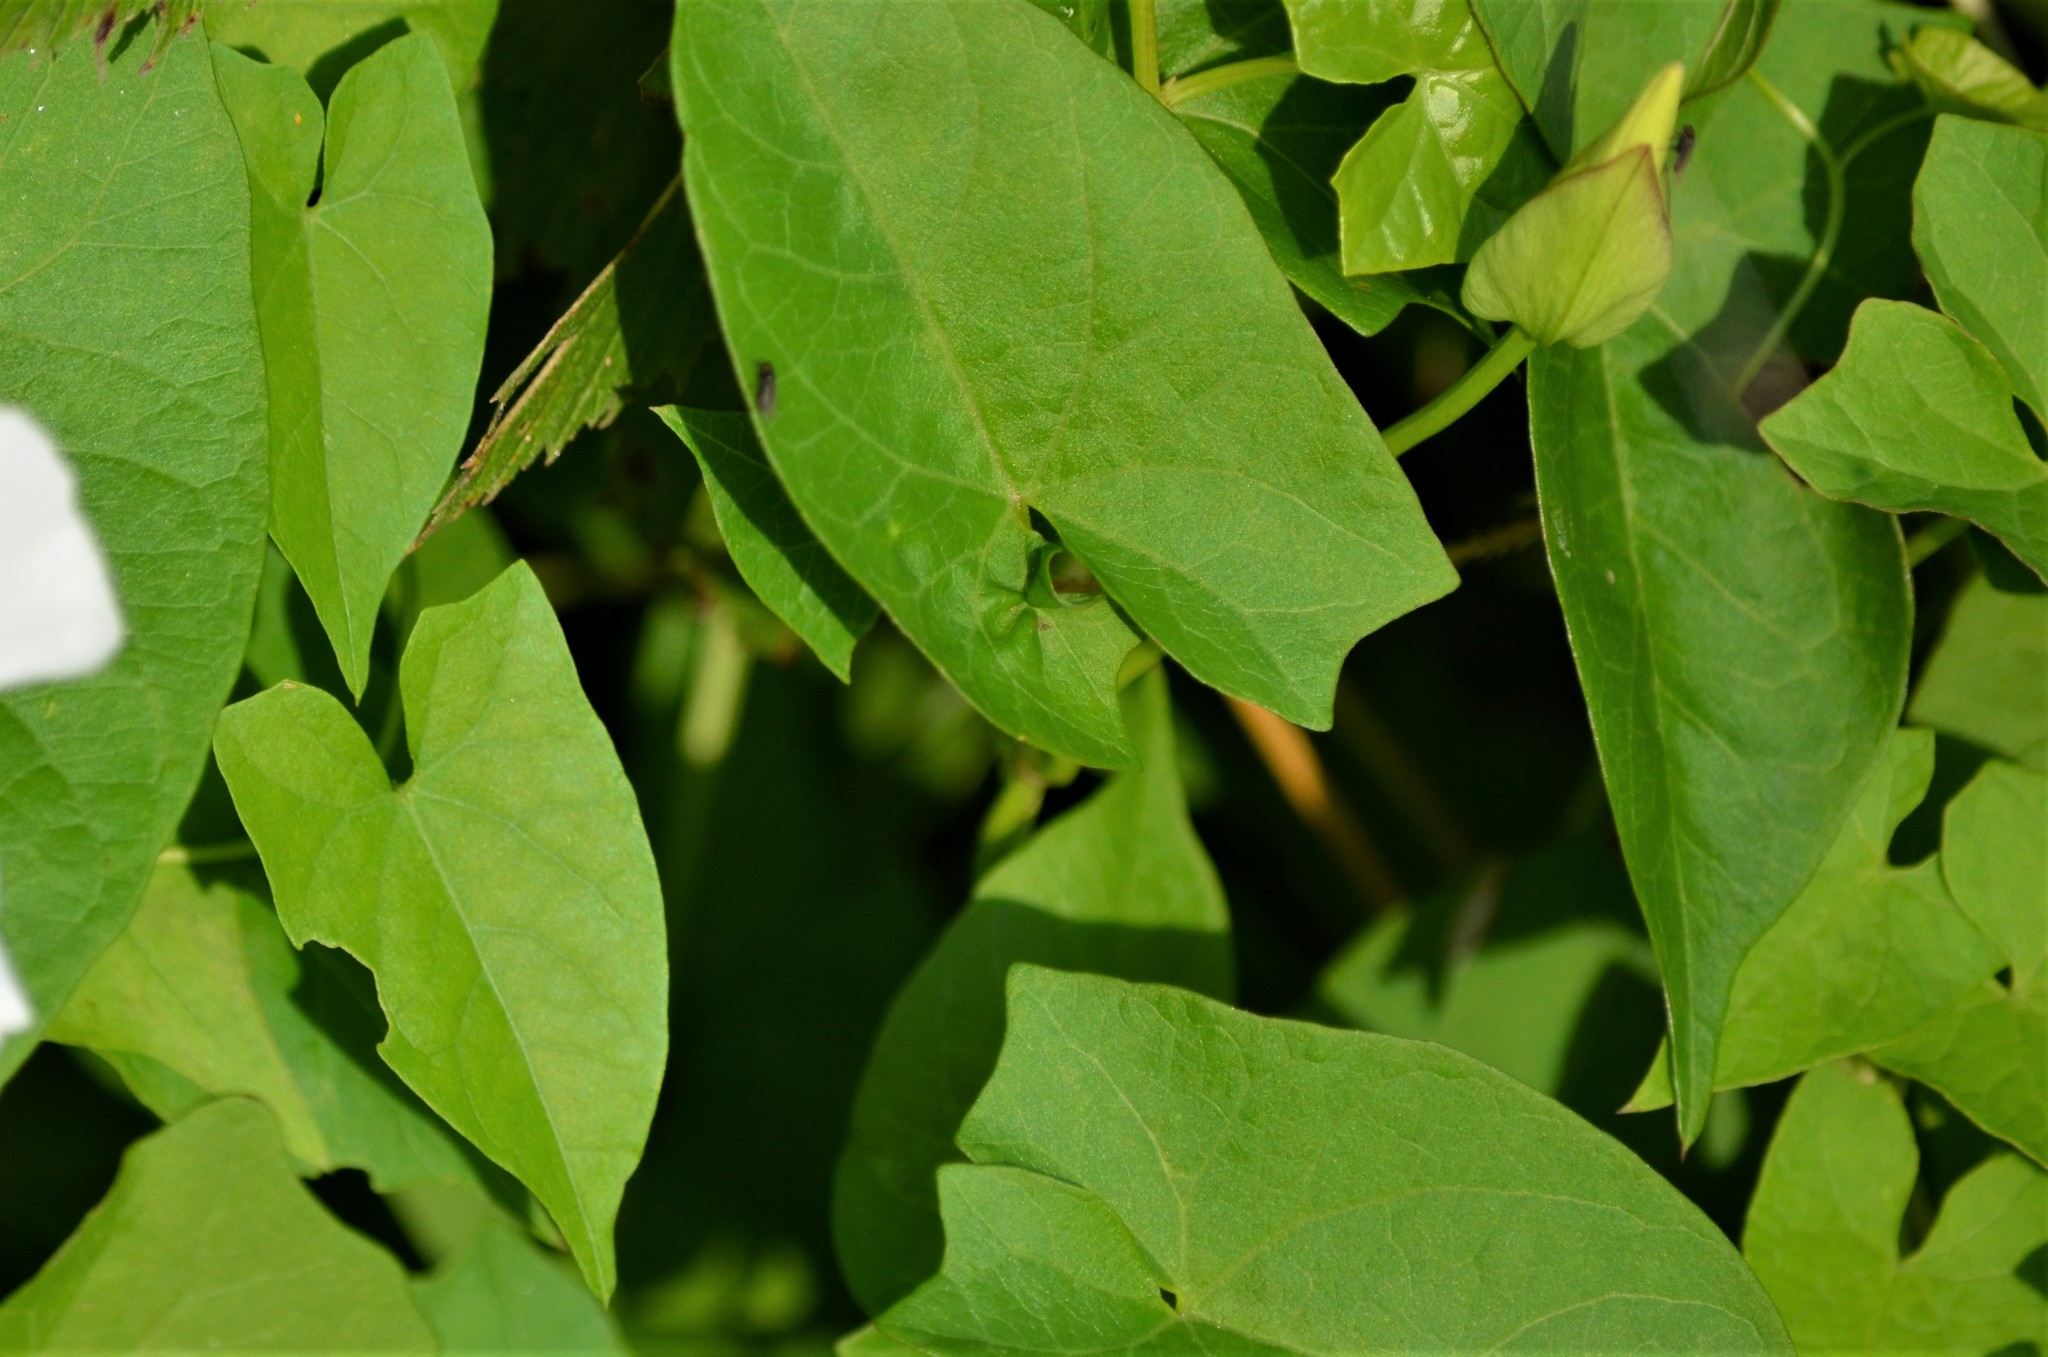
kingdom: Plantae
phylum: Tracheophyta
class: Magnoliopsida
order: Solanales
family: Convolvulaceae
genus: Calystegia
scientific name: Calystegia sepium
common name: Hedge bindweed
